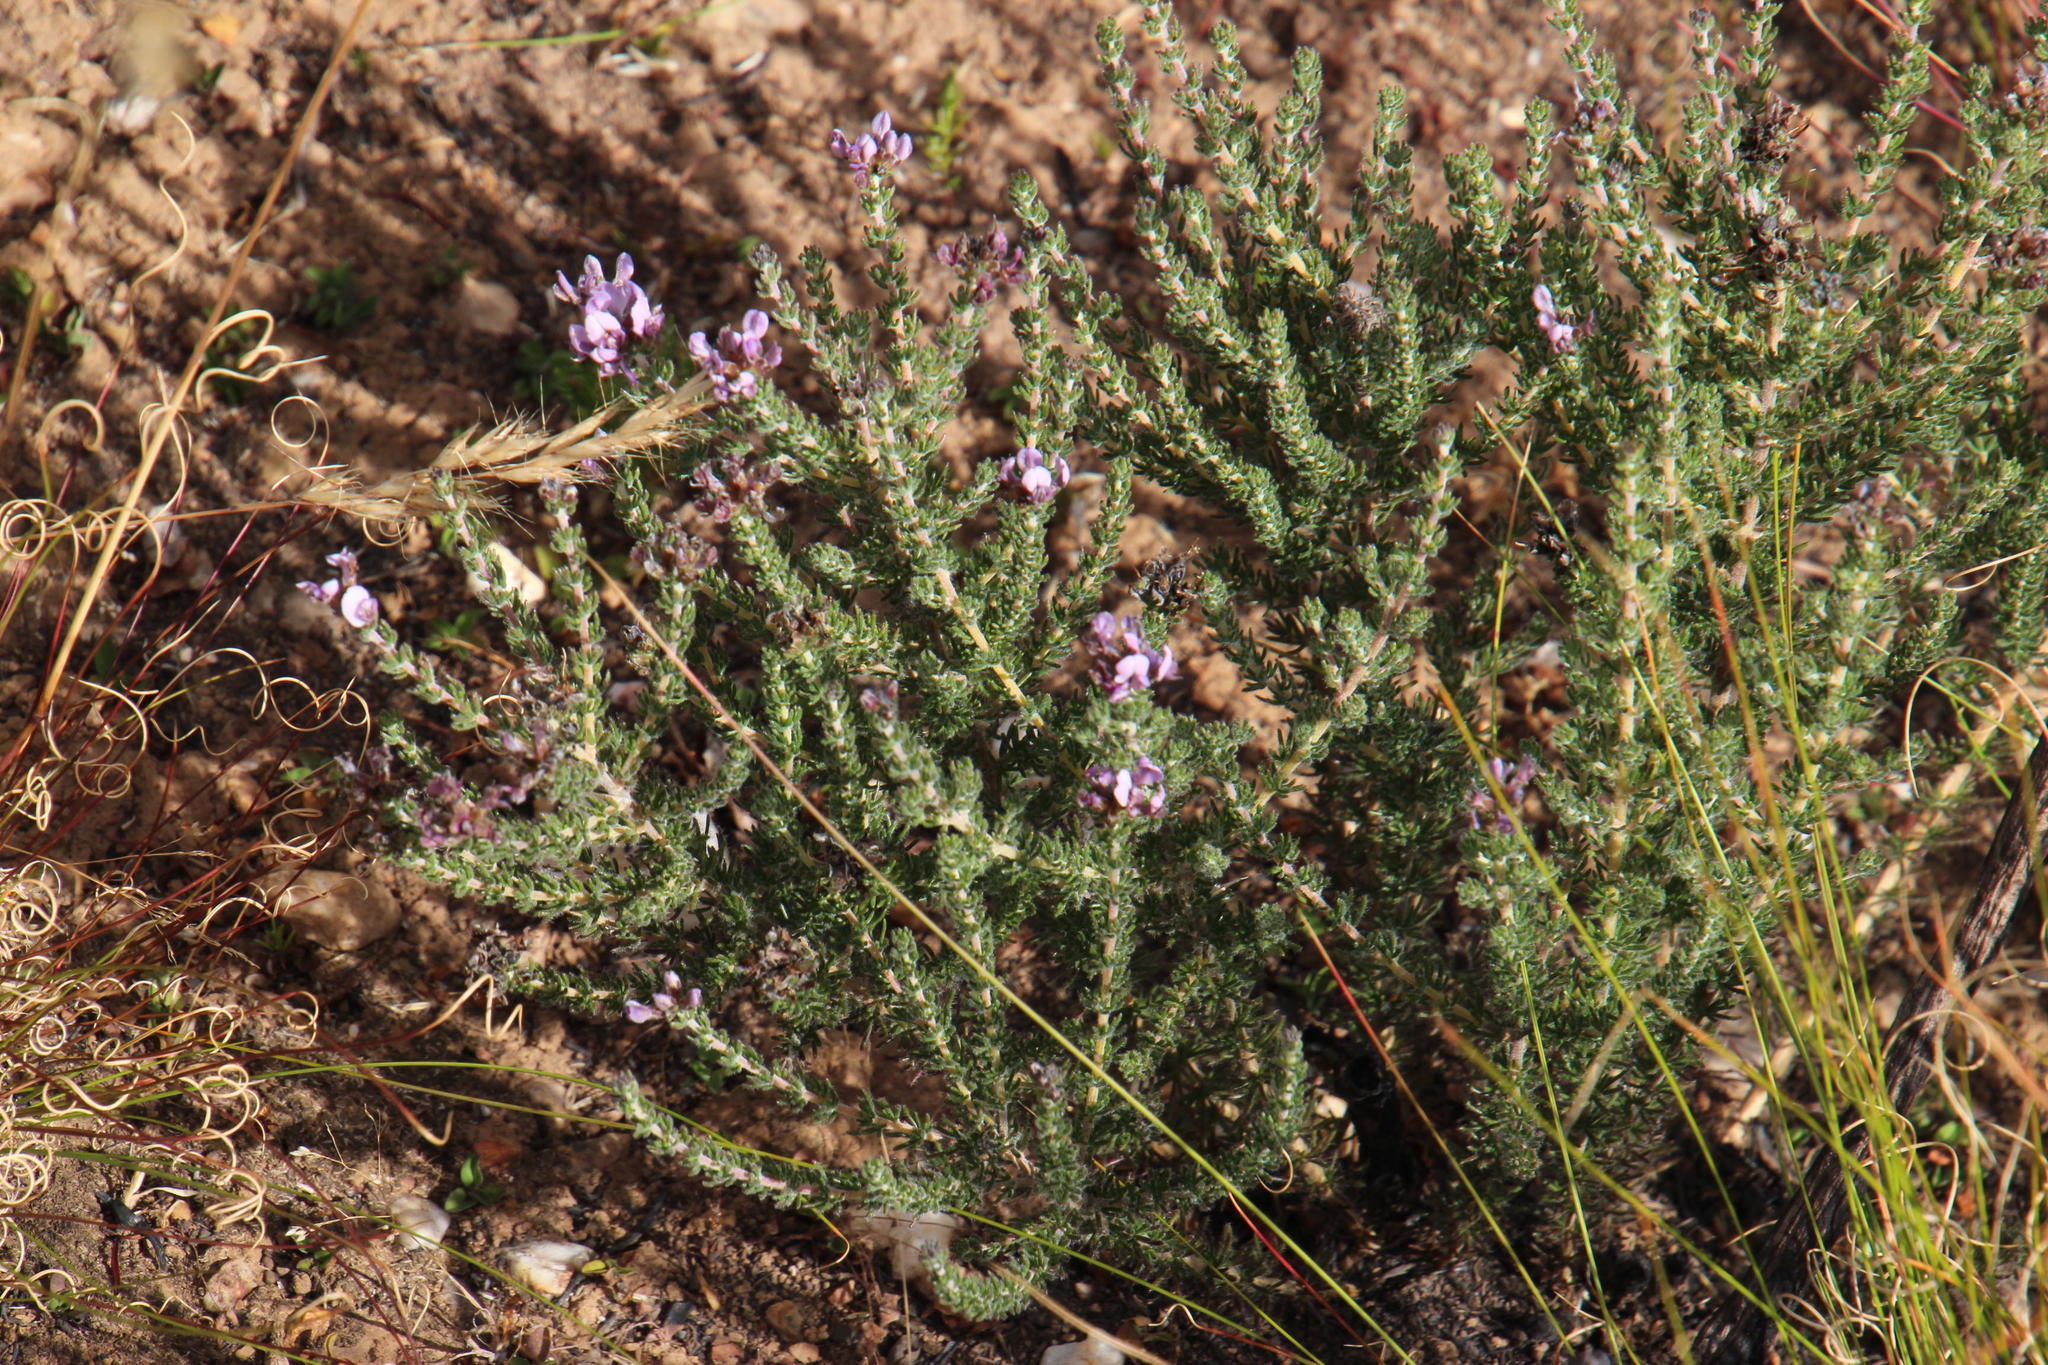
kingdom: Plantae
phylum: Tracheophyta
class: Magnoliopsida
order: Fabales
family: Fabaceae
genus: Aspalathus
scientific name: Aspalathus nigra
